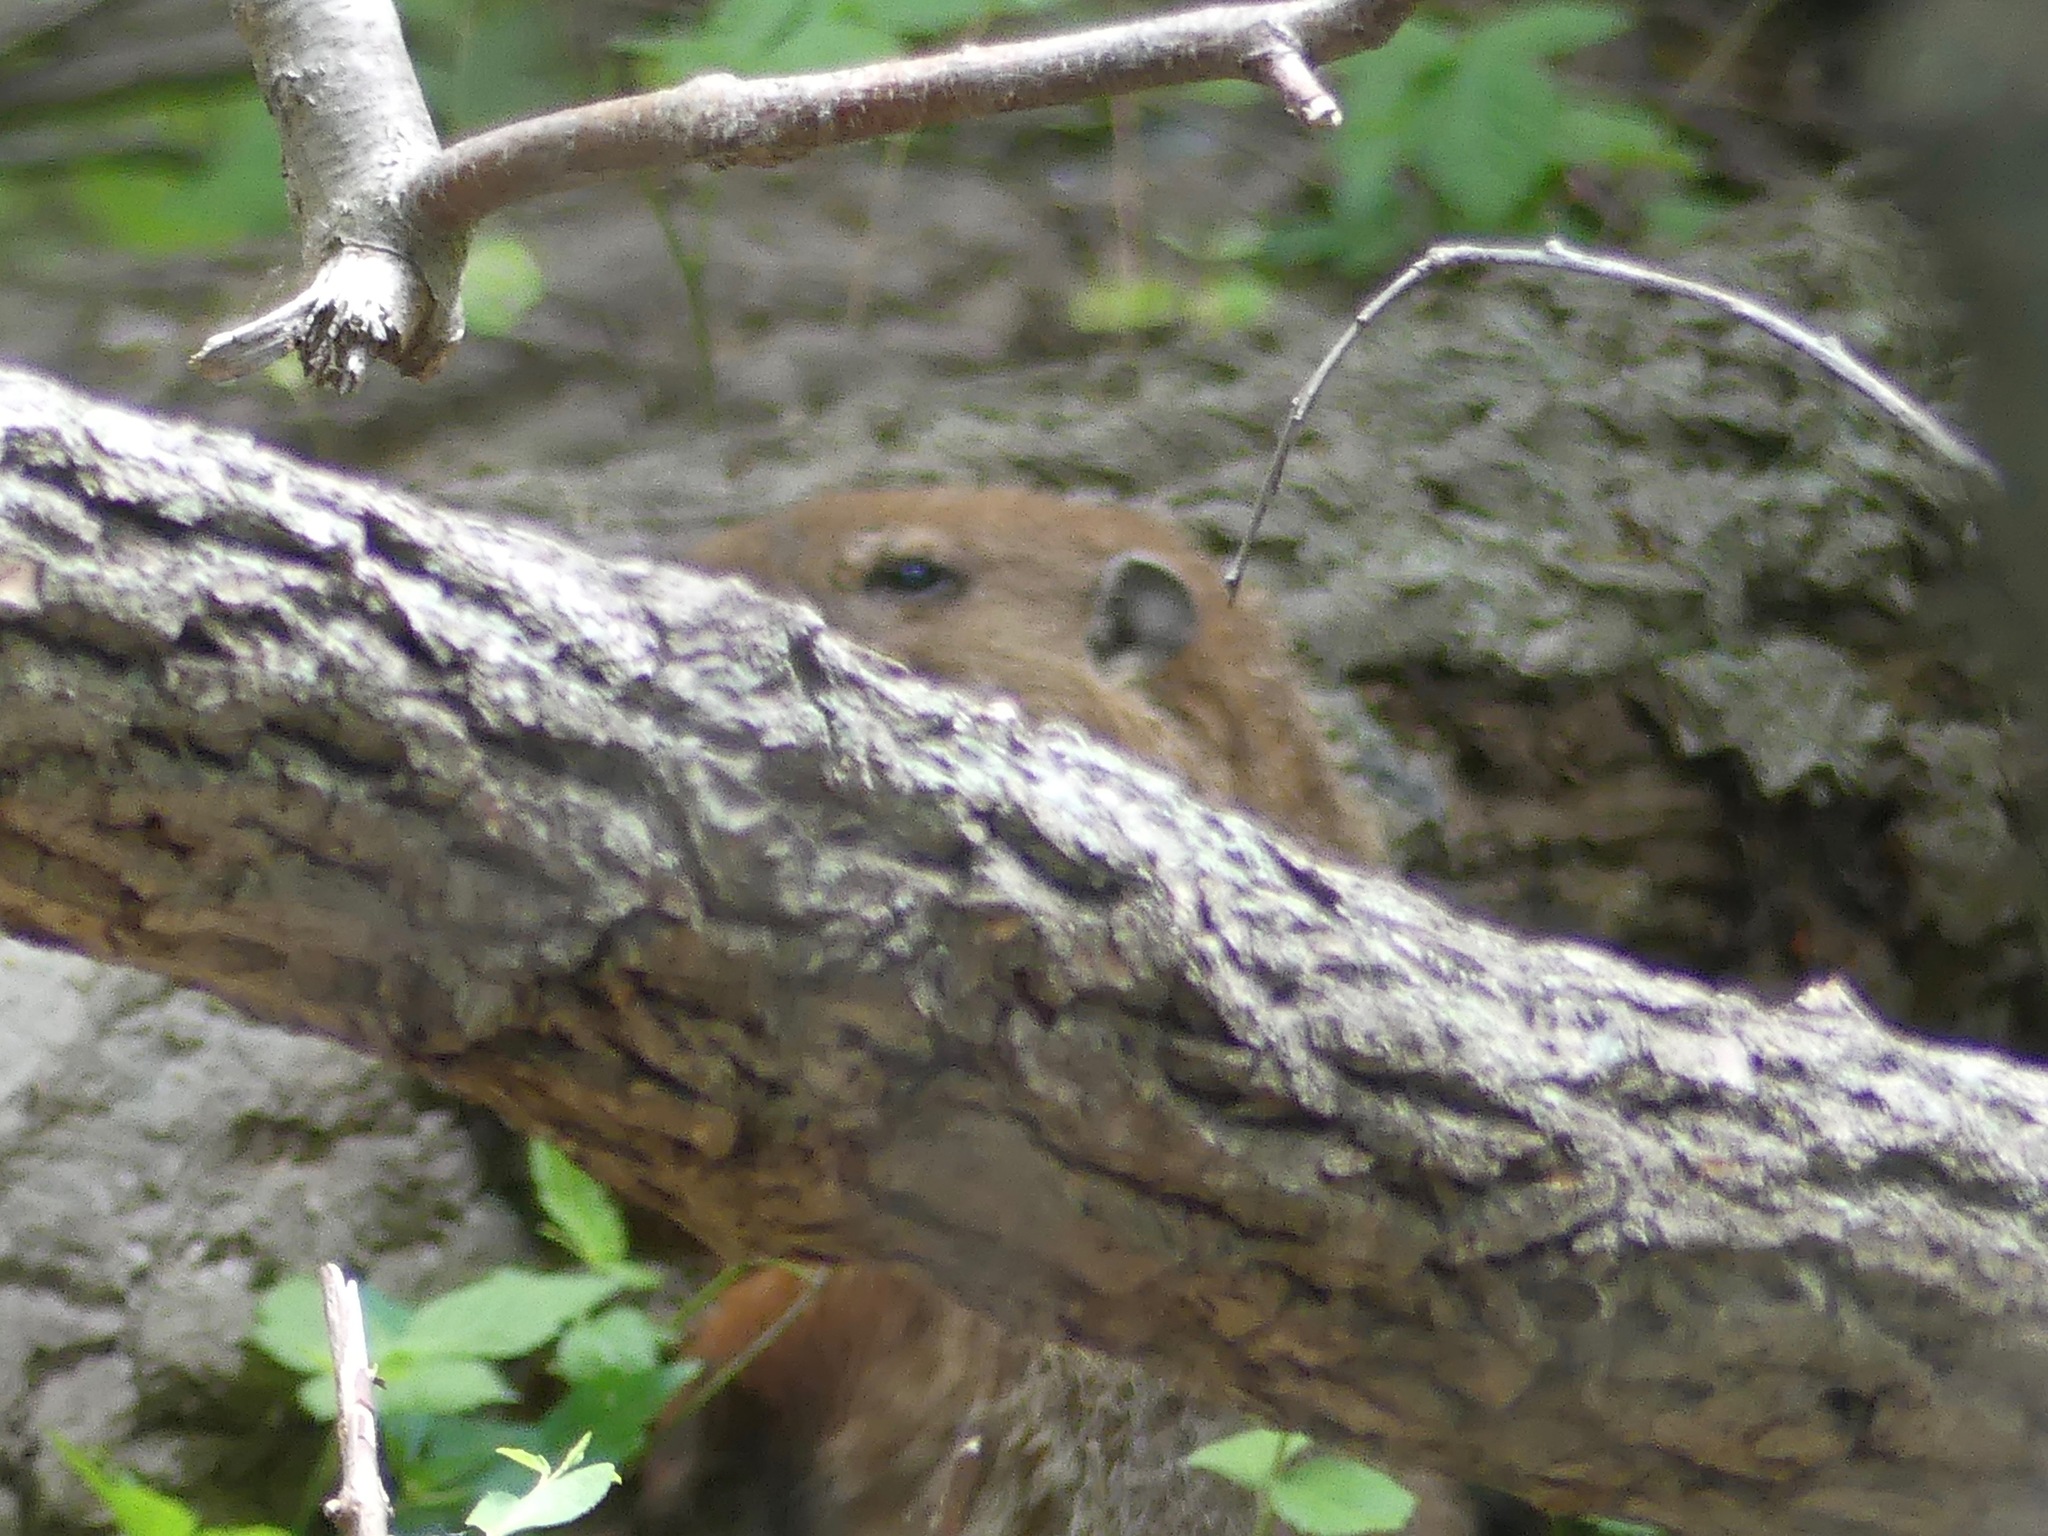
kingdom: Animalia
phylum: Chordata
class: Mammalia
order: Rodentia
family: Sciuridae
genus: Marmota
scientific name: Marmota monax
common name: Groundhog
